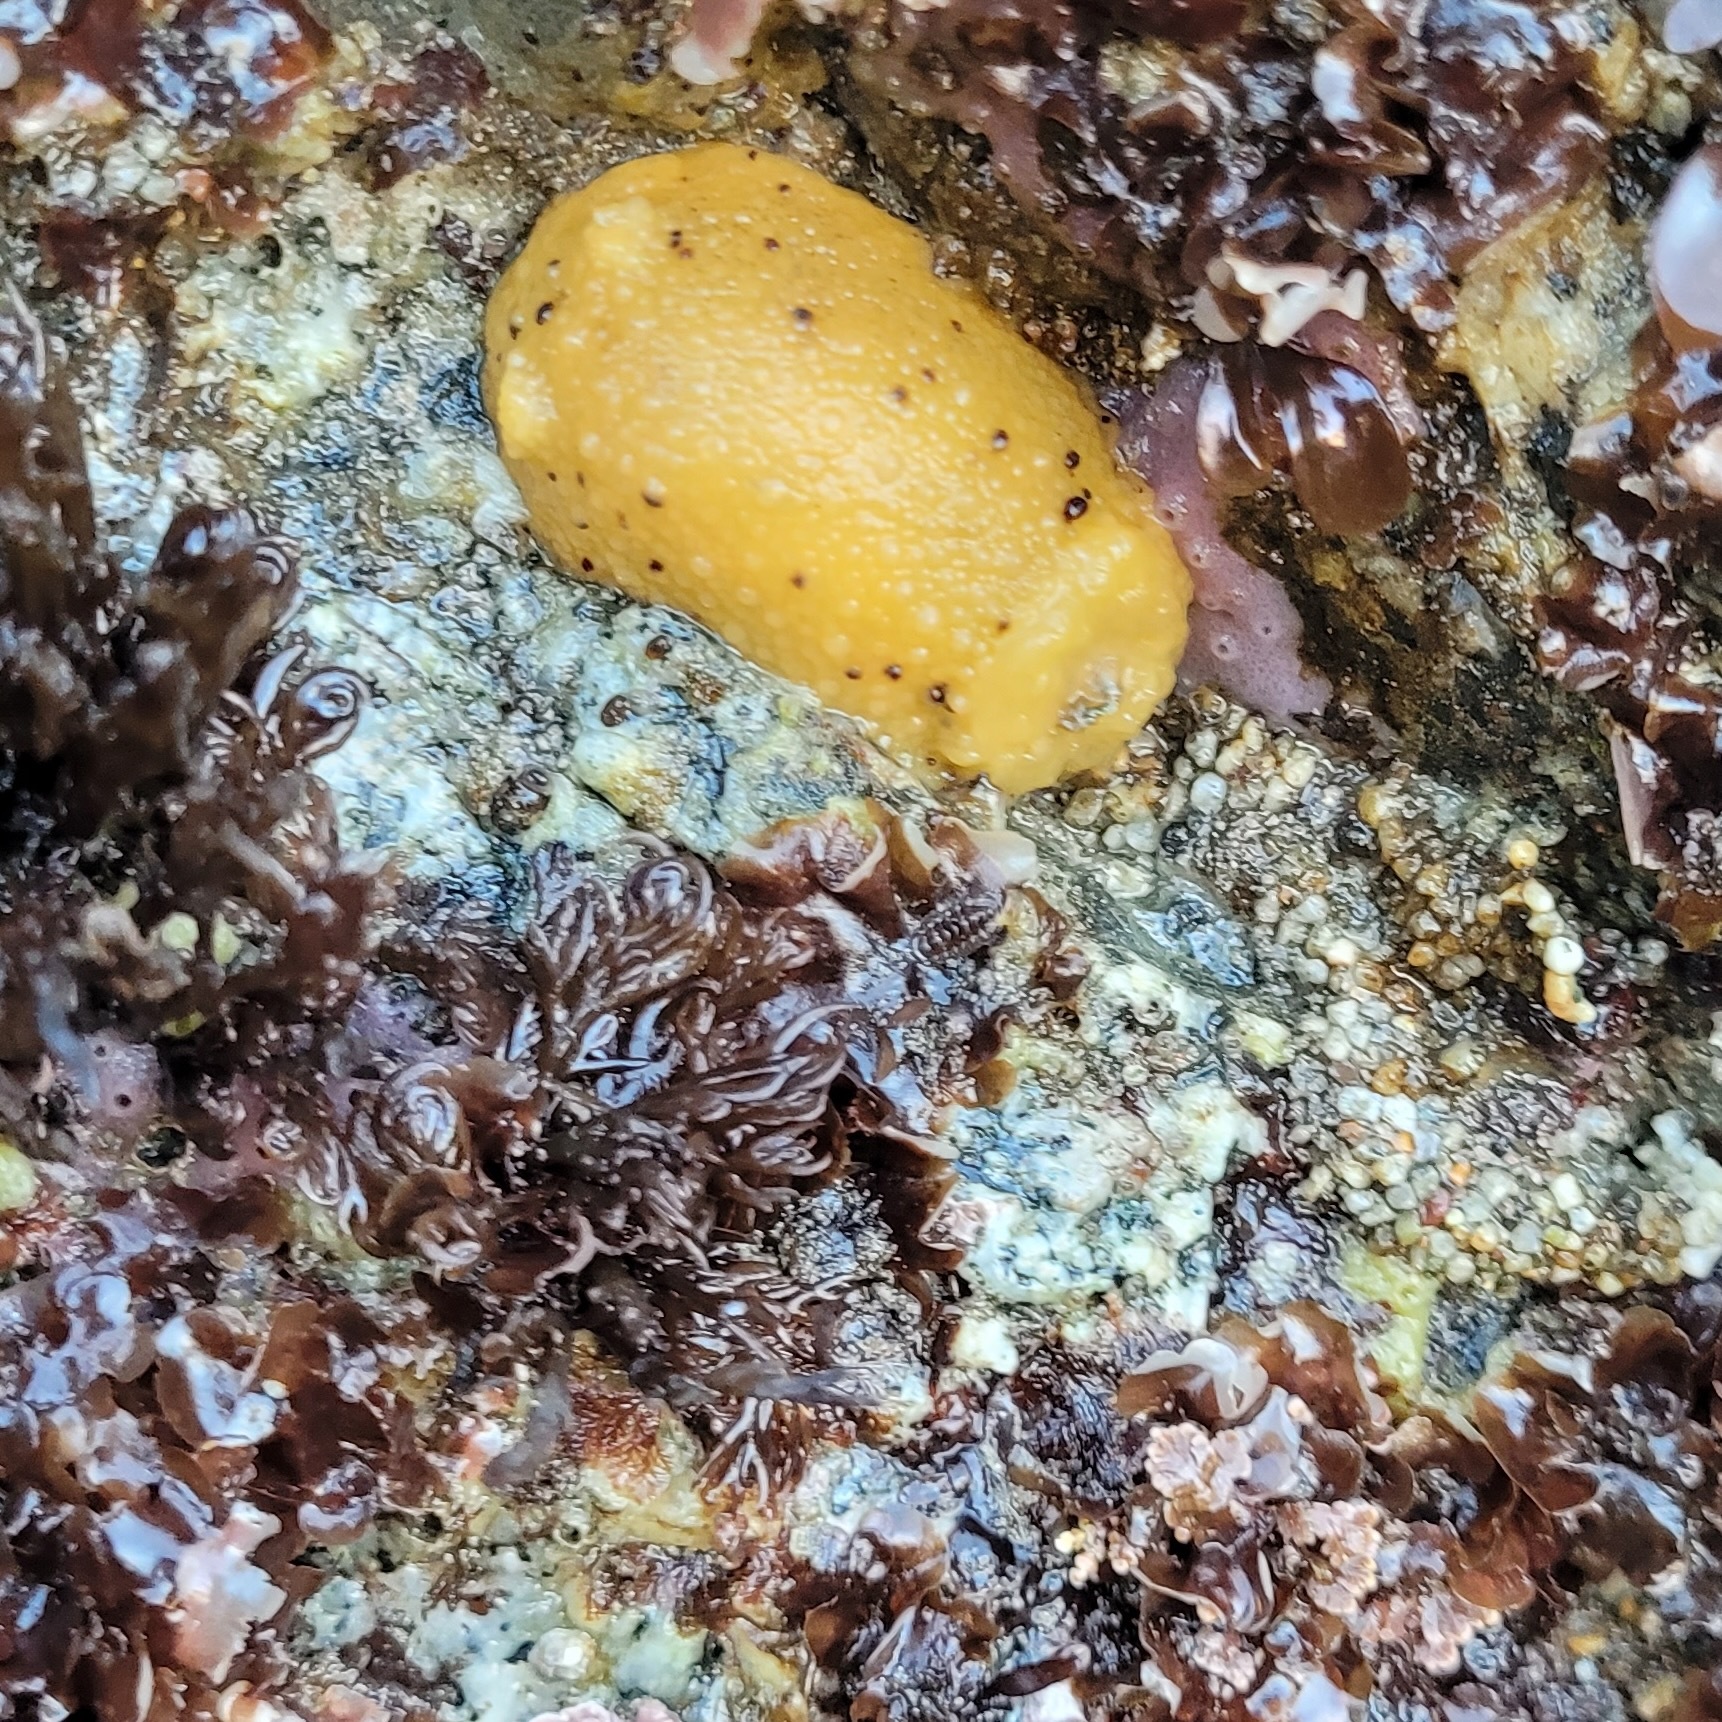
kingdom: Animalia
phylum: Mollusca
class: Gastropoda
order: Nudibranchia
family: Dorididae
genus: Doris
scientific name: Doris montereyensis
